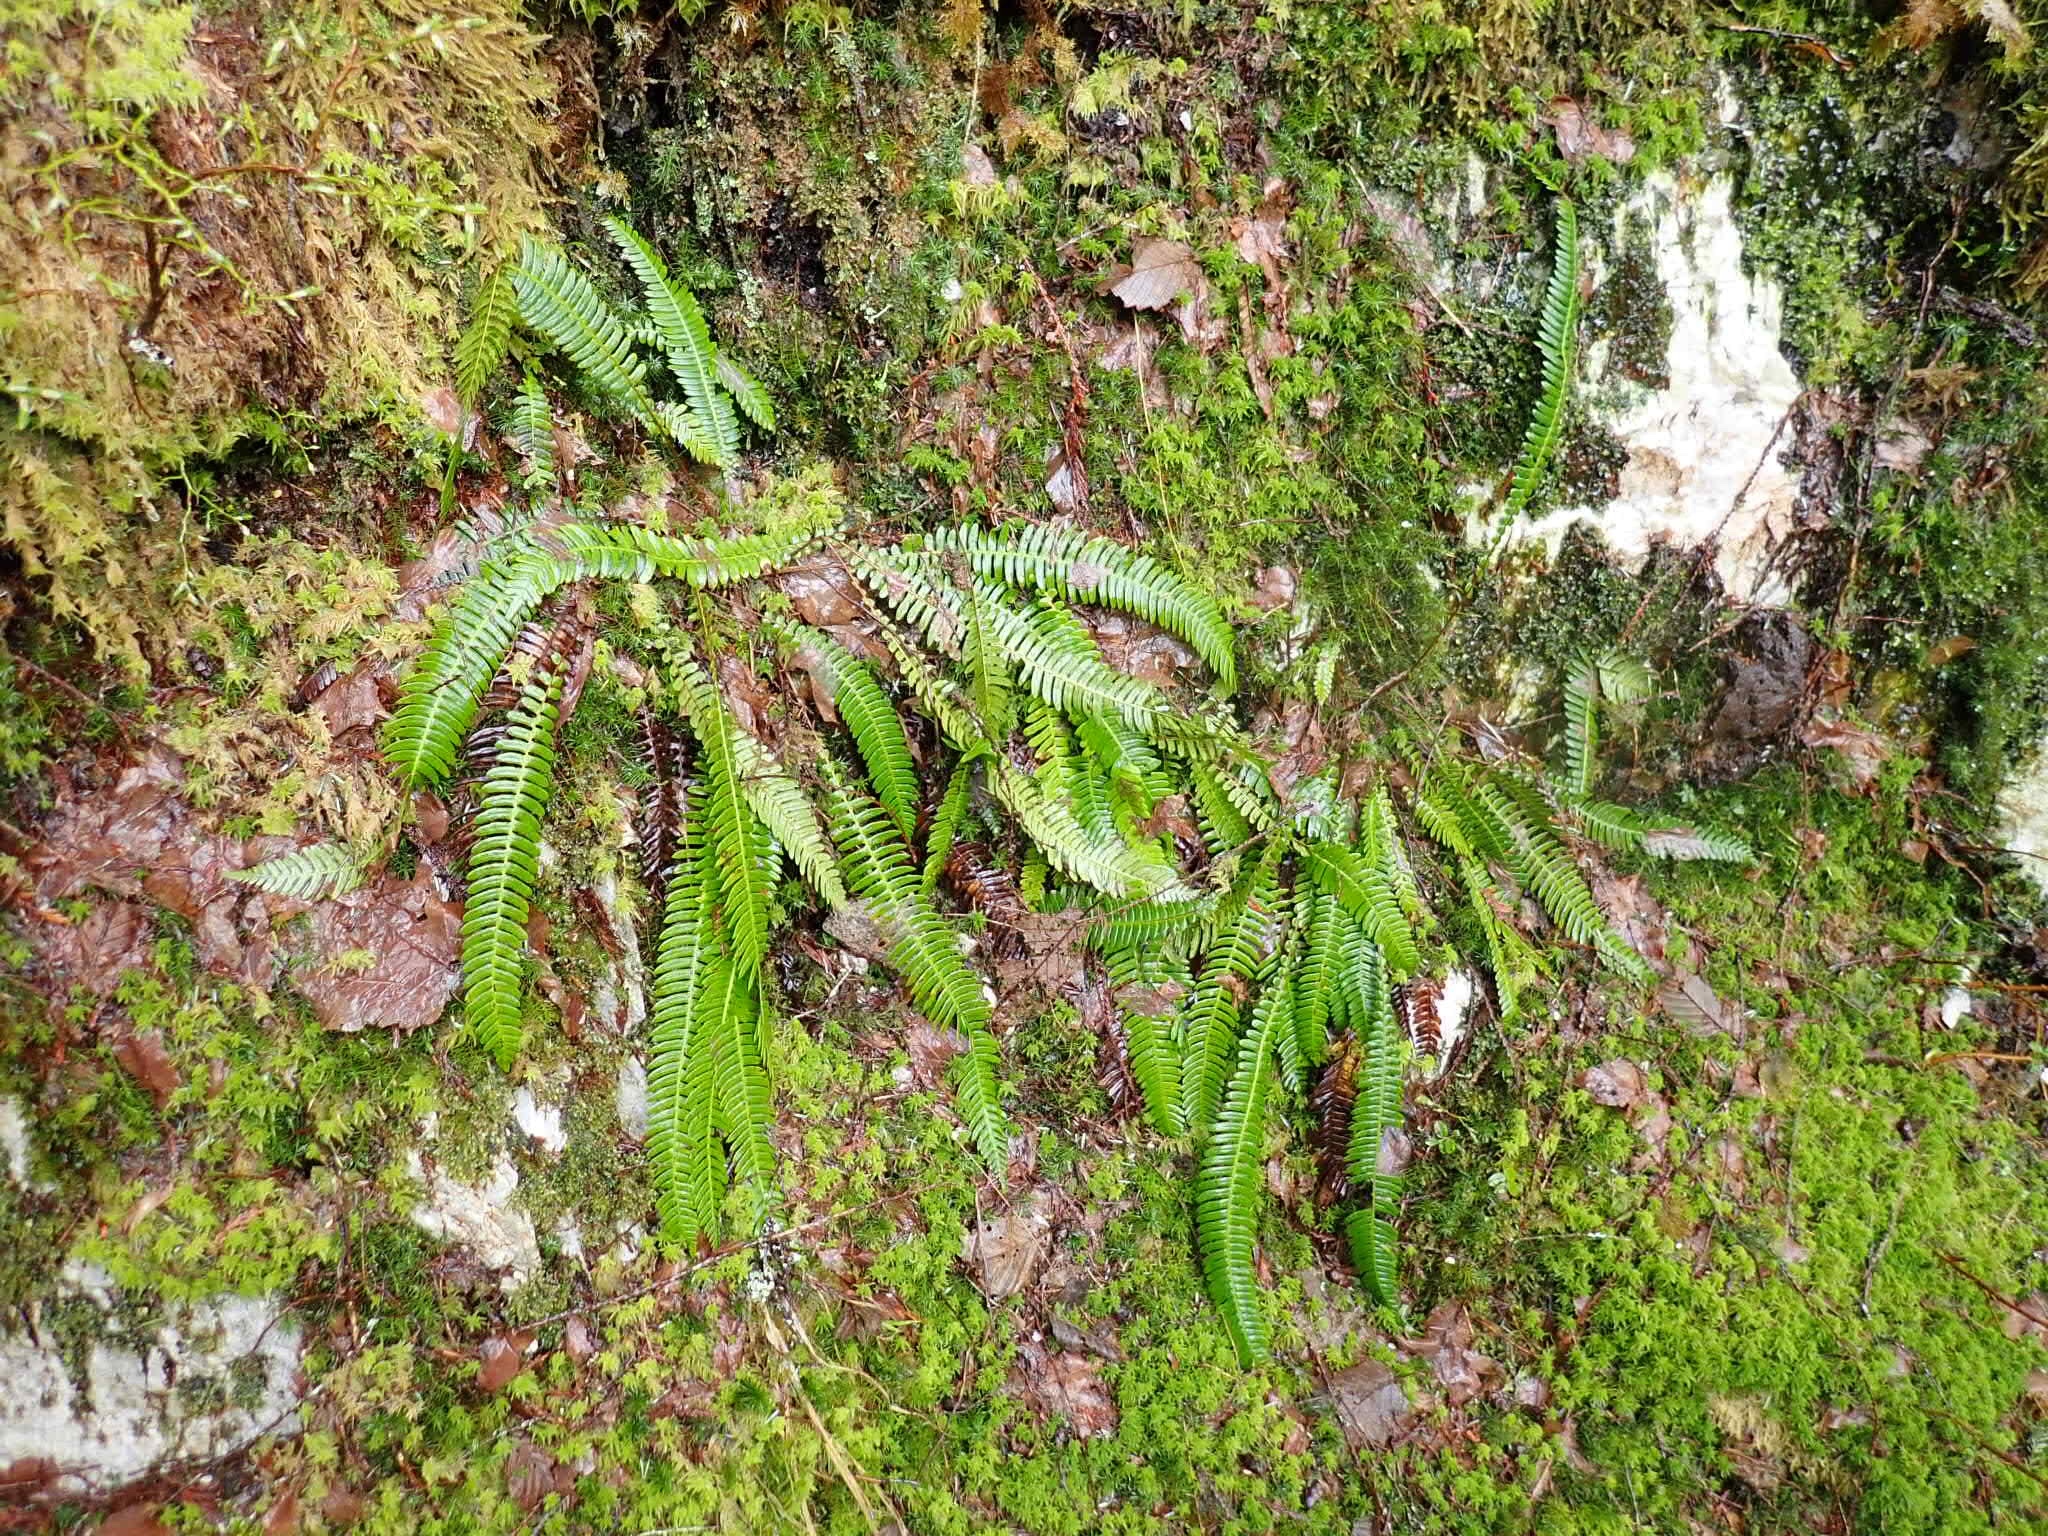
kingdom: Plantae
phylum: Tracheophyta
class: Polypodiopsida
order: Polypodiales
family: Blechnaceae
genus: Struthiopteris
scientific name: Struthiopteris spicant
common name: Deer fern
